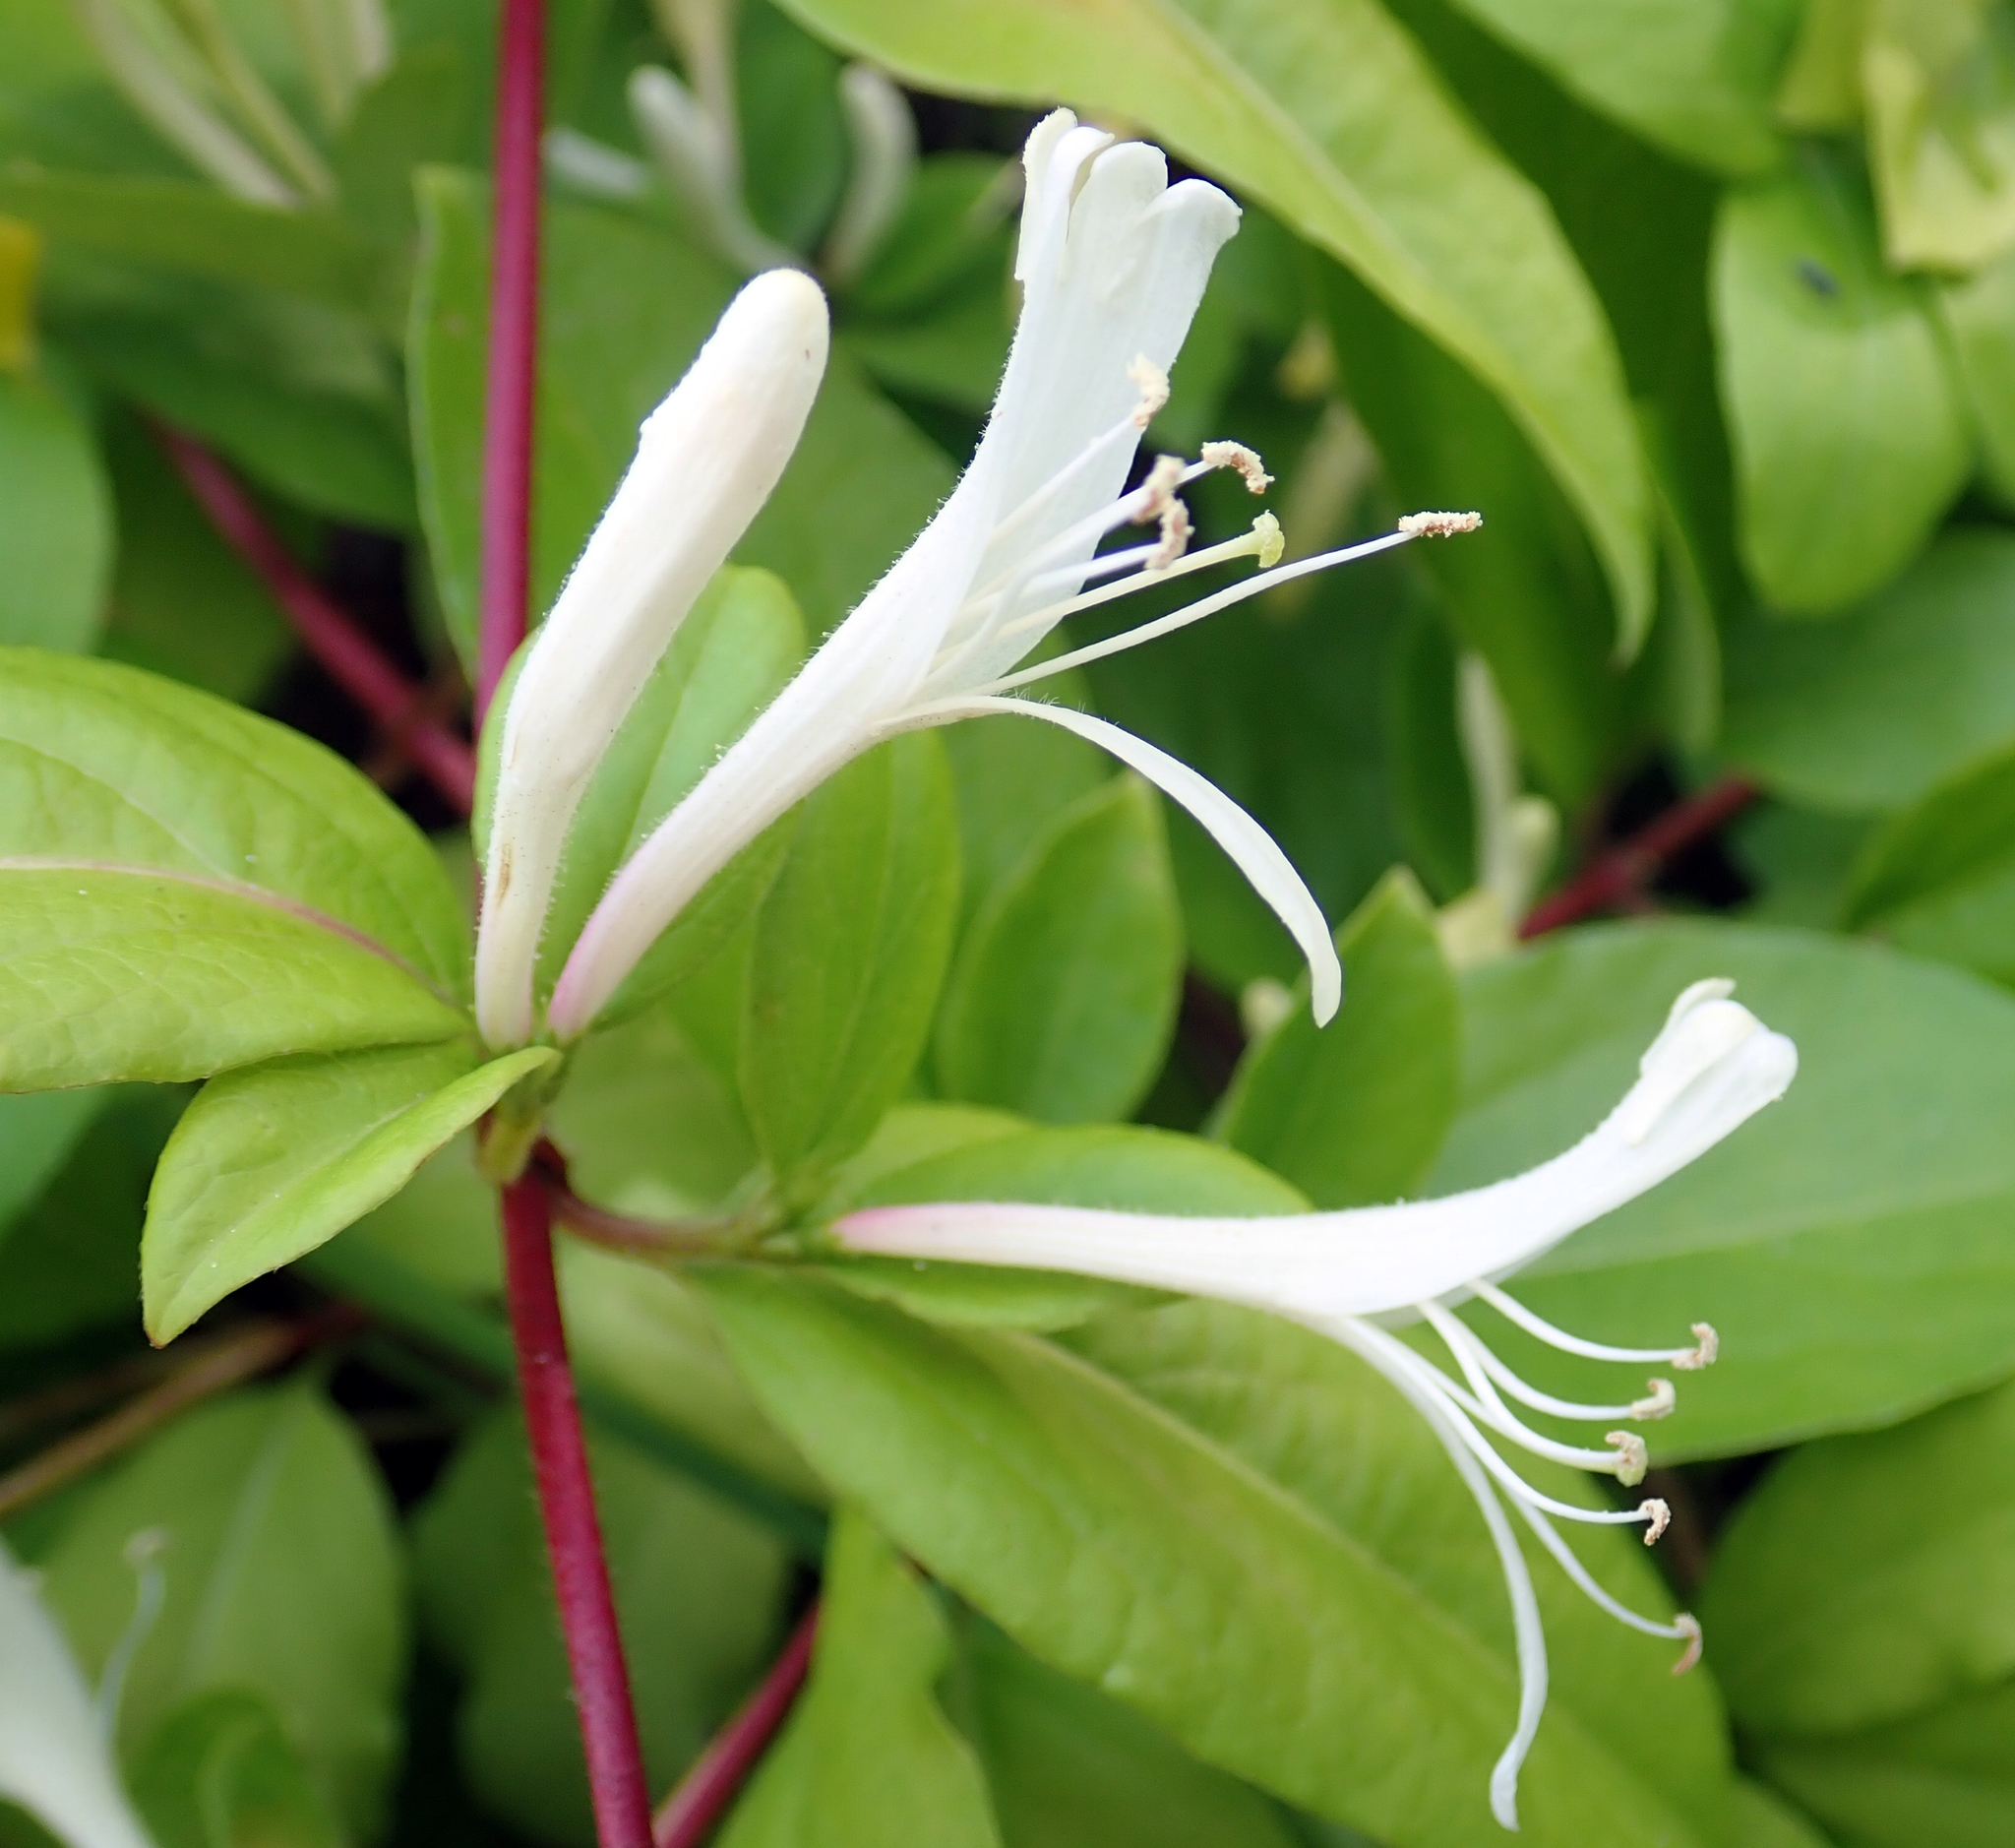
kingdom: Plantae
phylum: Tracheophyta
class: Magnoliopsida
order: Dipsacales
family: Caprifoliaceae
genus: Lonicera
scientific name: Lonicera japonica
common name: Japanese honeysuckle
